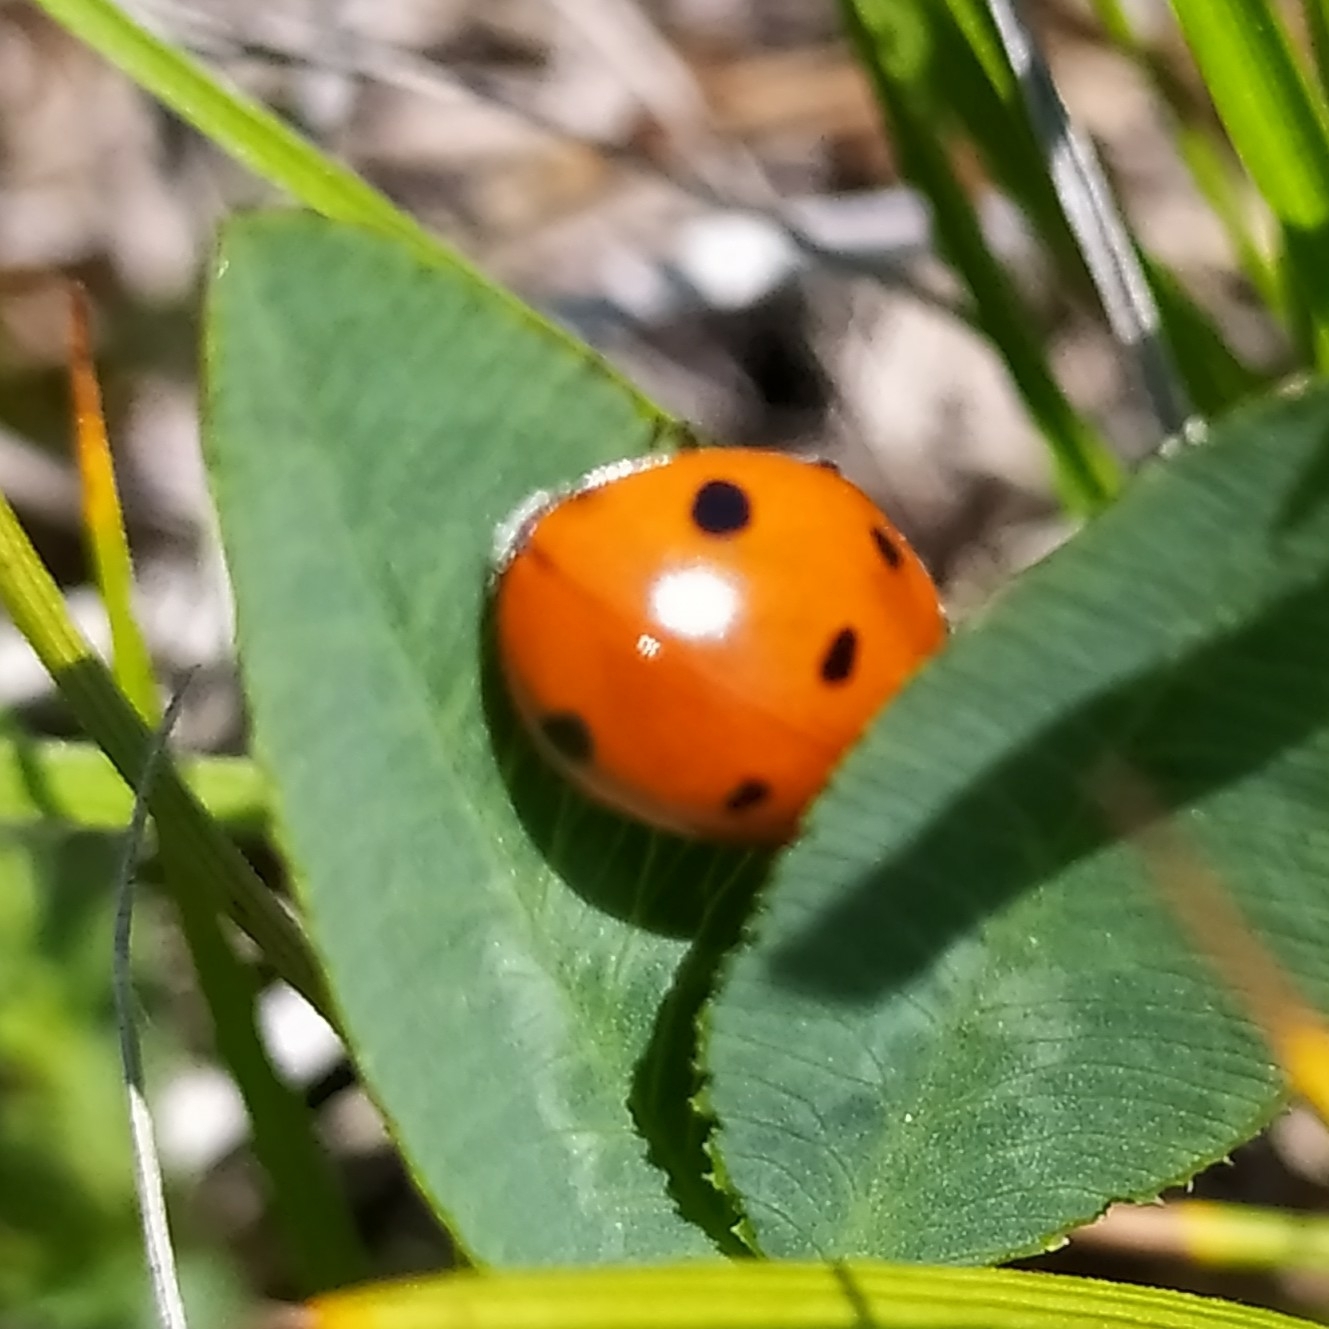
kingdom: Animalia
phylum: Arthropoda
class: Insecta
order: Coleoptera
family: Coccinellidae
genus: Coccinella
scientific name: Coccinella septempunctata
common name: Sevenspotted lady beetle
